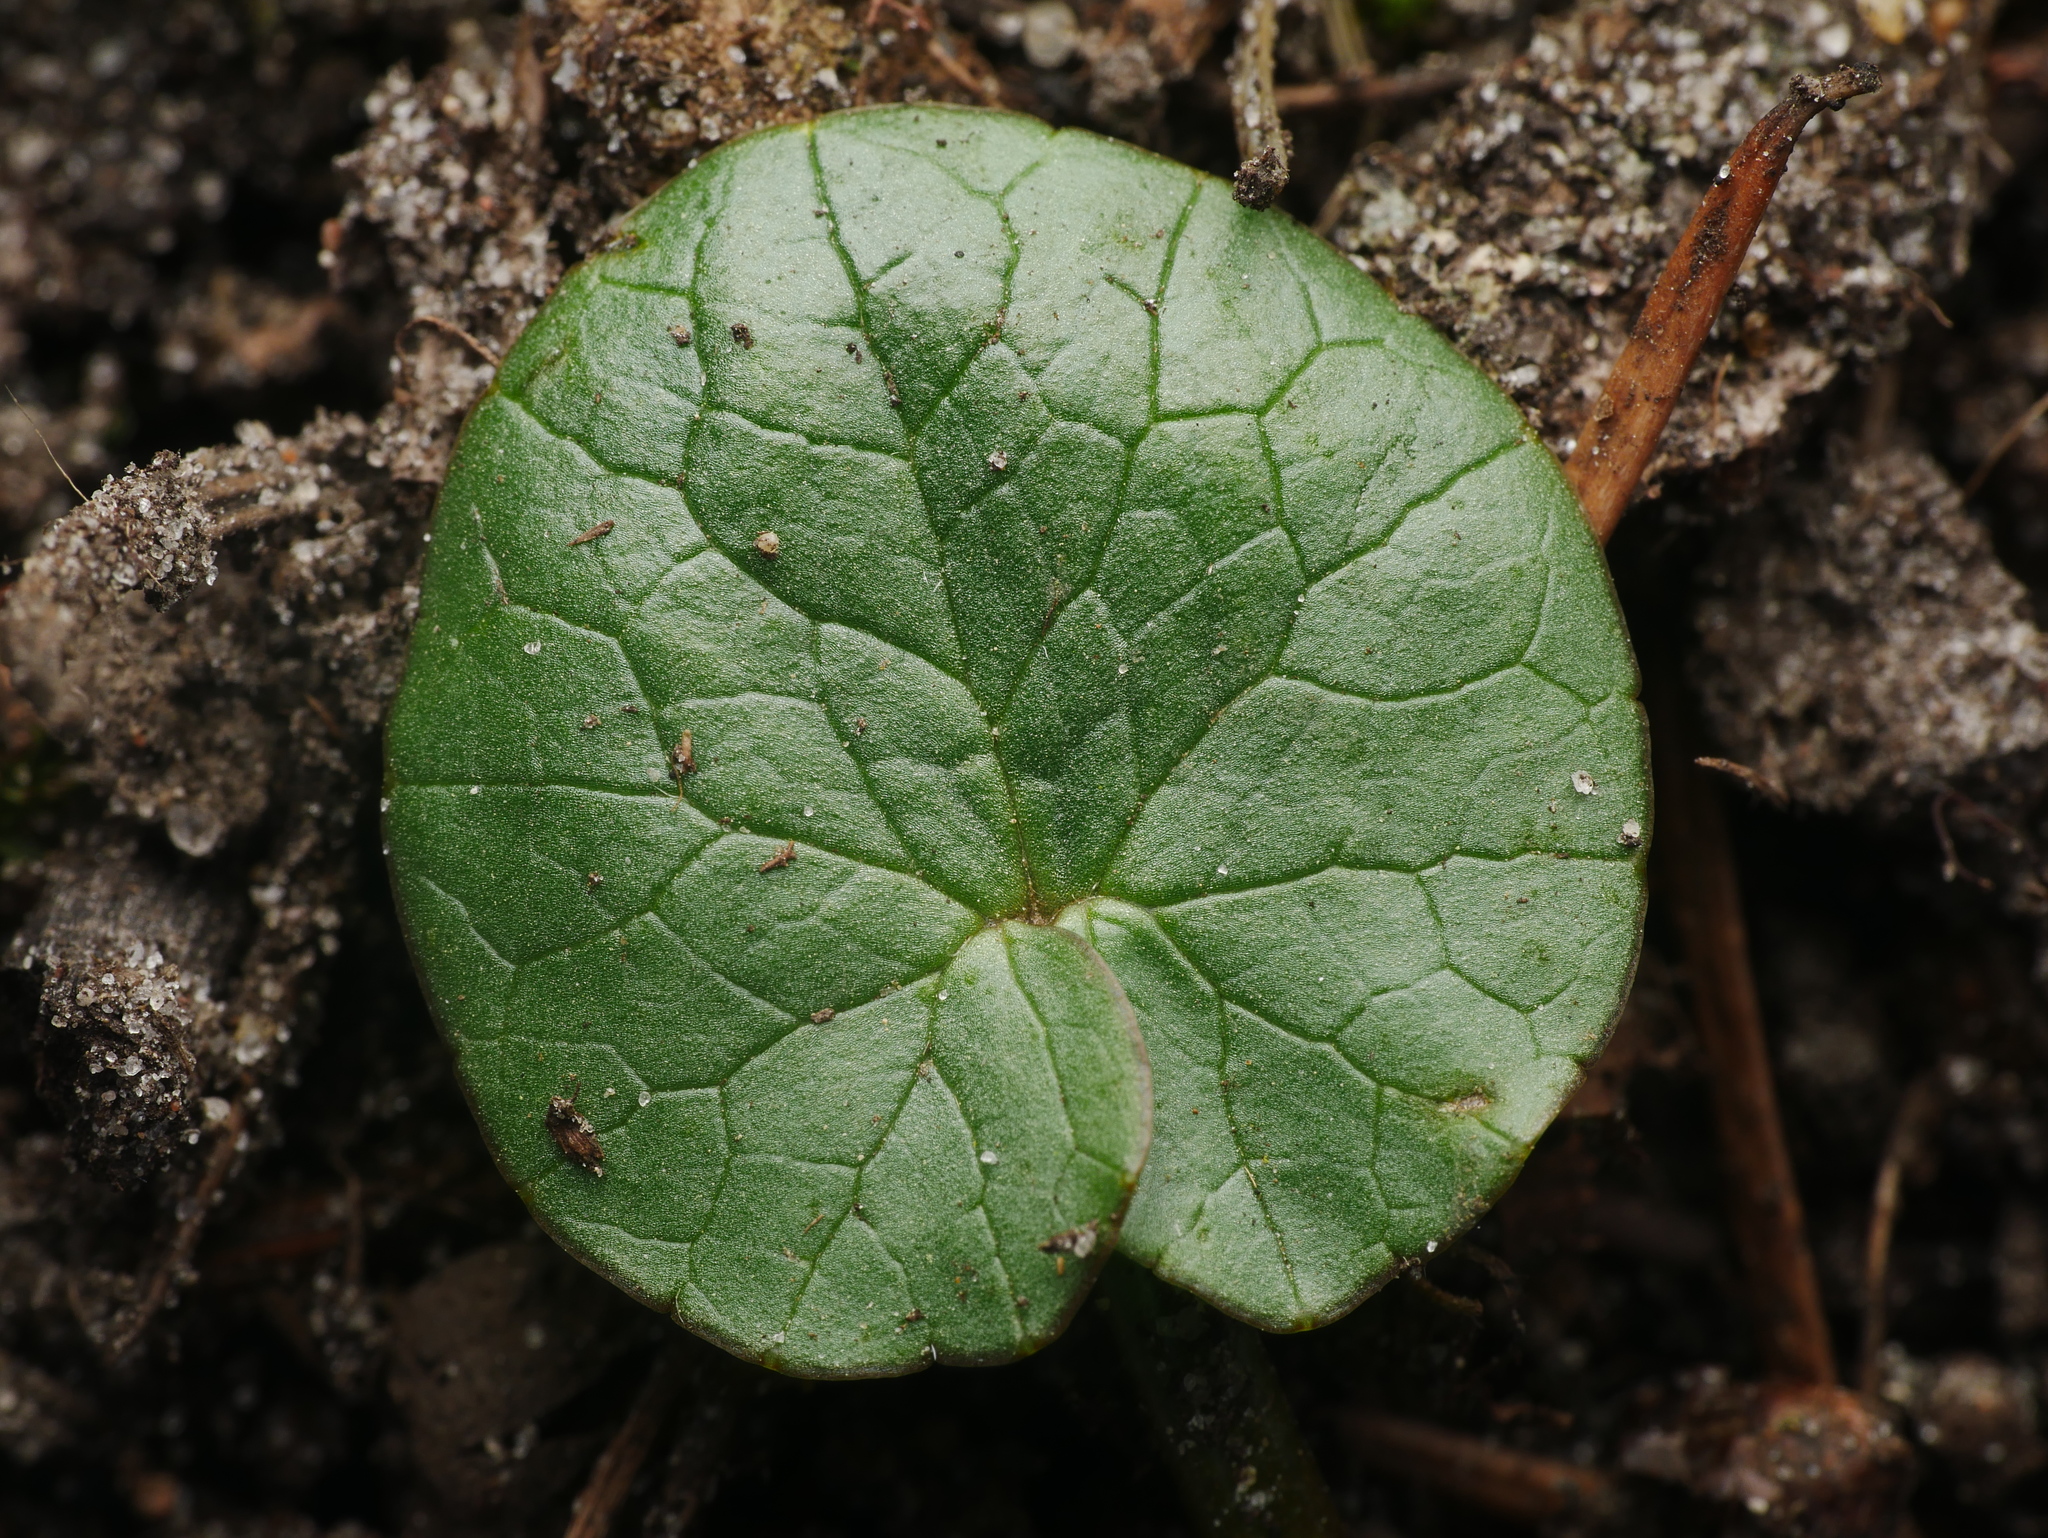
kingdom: Plantae
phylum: Tracheophyta
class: Magnoliopsida
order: Ranunculales
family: Ranunculaceae
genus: Ficaria
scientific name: Ficaria verna
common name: Lesser celandine
